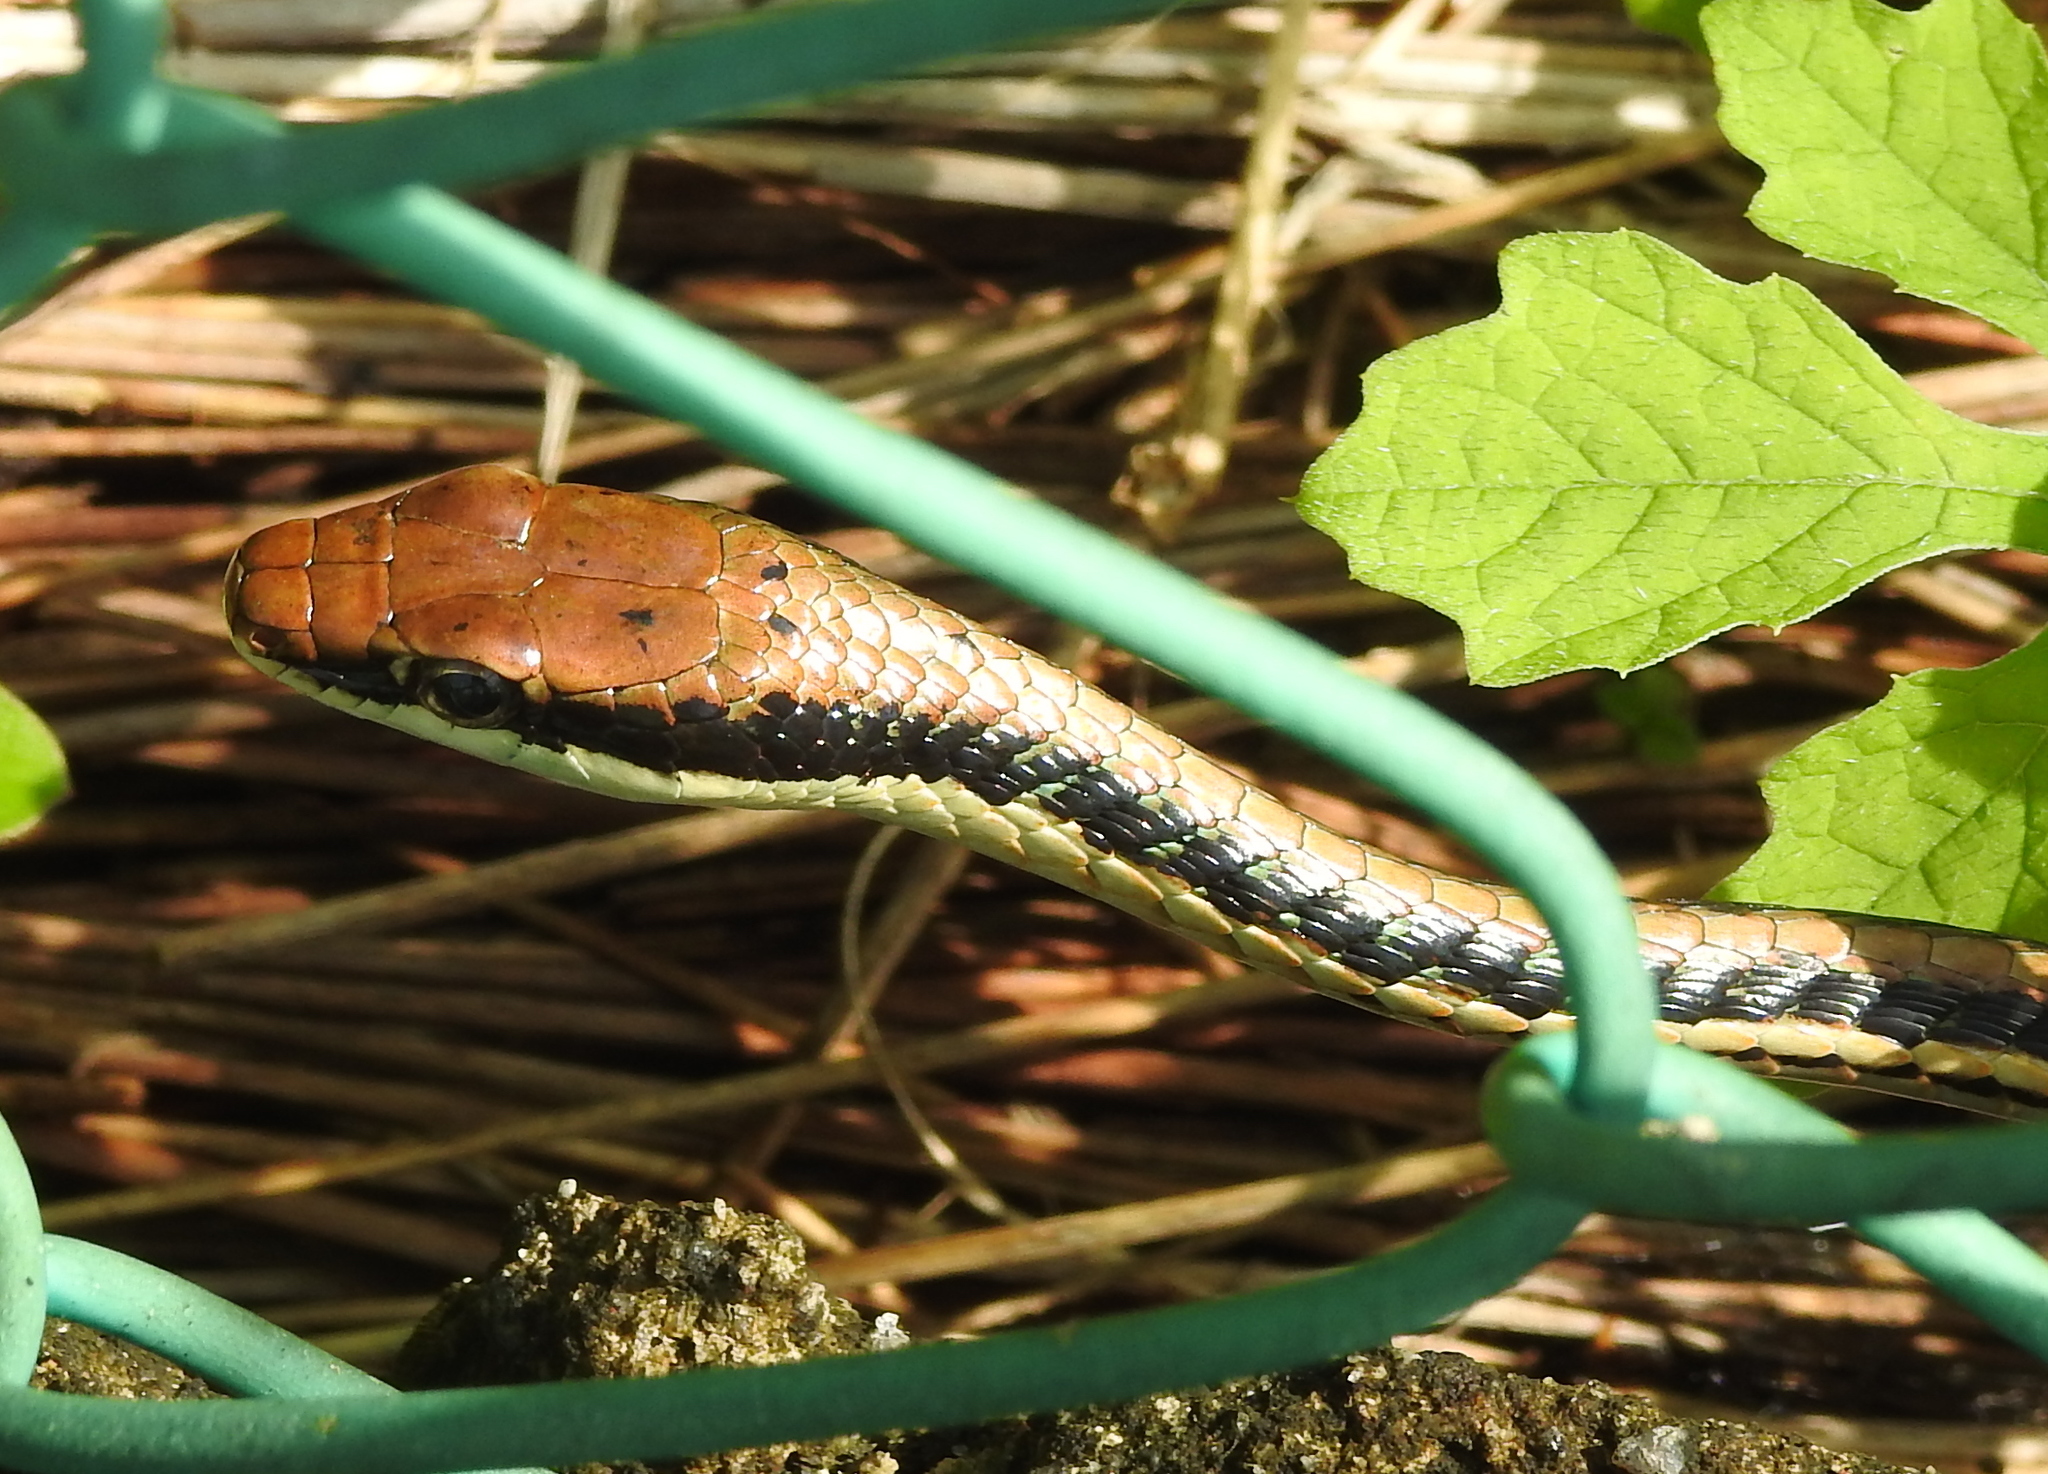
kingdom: Animalia
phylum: Chordata
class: Squamata
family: Colubridae
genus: Dendrelaphis
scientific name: Dendrelaphis pictus
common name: Indonesian bronze-back
